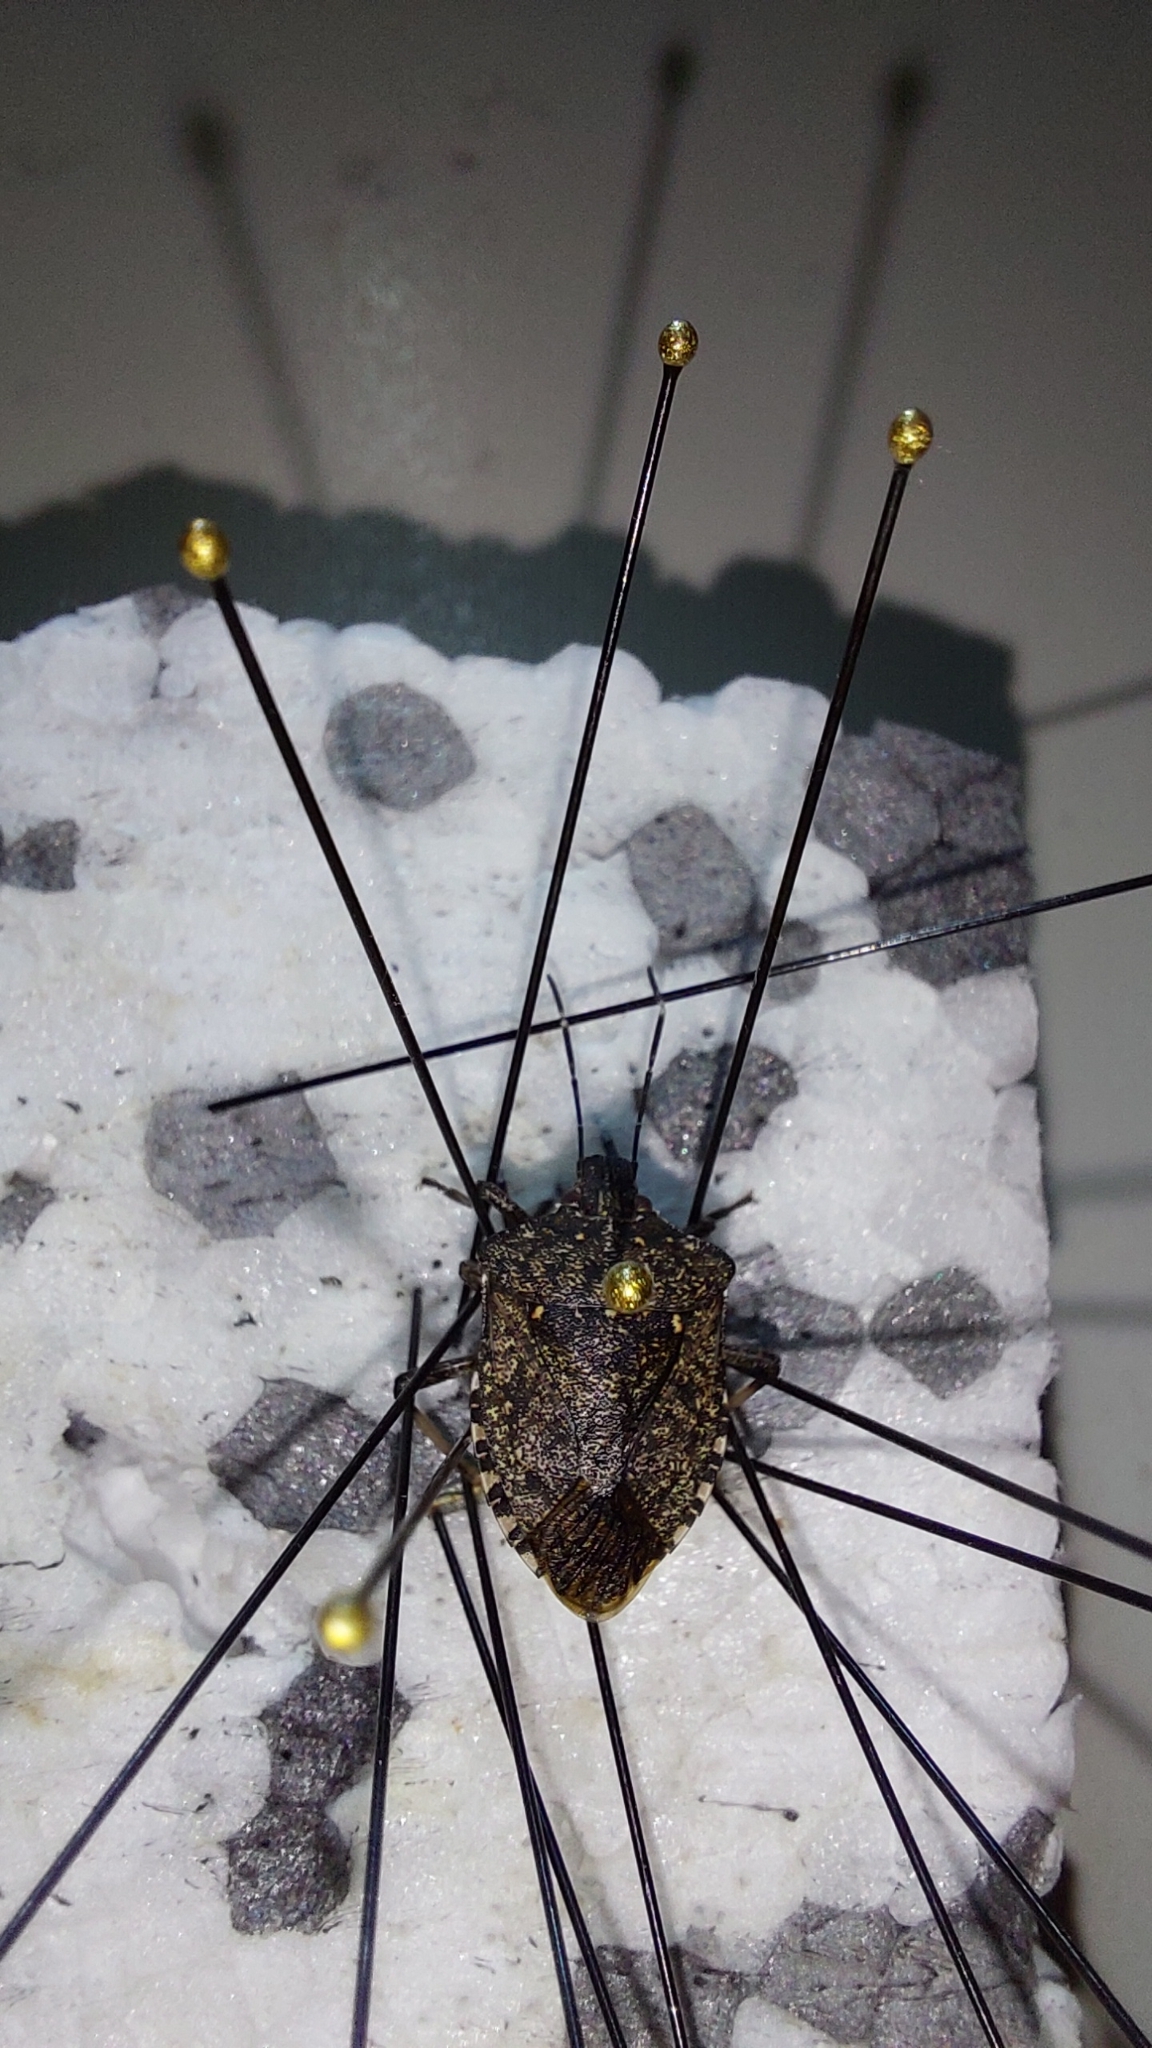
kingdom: Animalia
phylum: Arthropoda
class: Insecta
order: Hemiptera
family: Pentatomidae
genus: Halyomorpha
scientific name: Halyomorpha halys
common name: Brown marmorated stink bug
